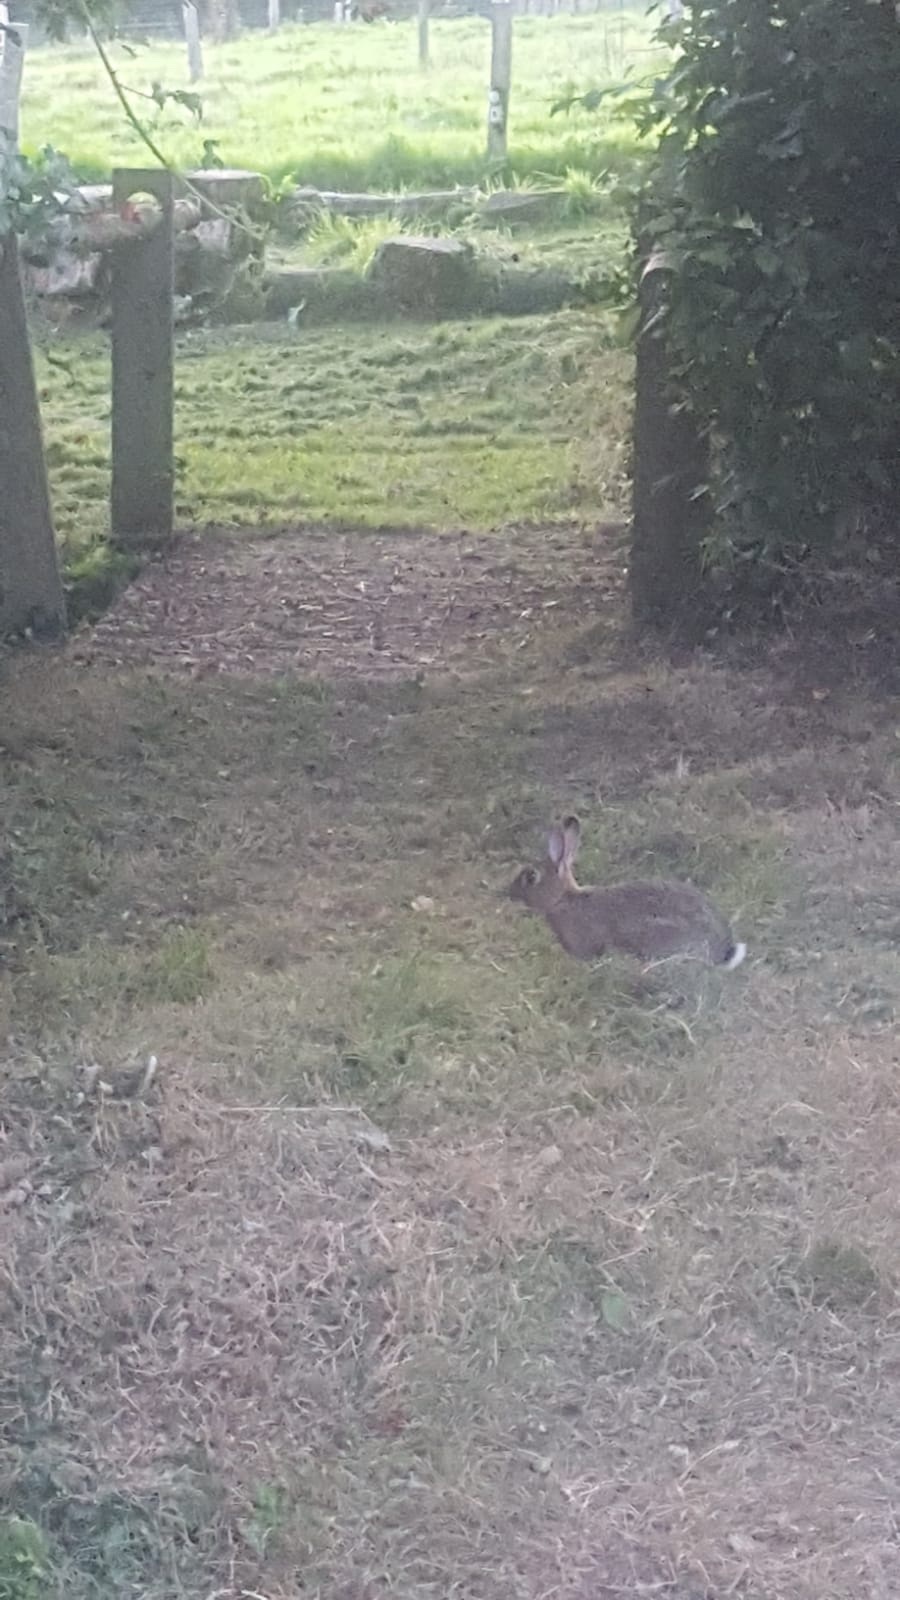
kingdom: Animalia
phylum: Chordata
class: Mammalia
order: Lagomorpha
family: Leporidae
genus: Oryctolagus
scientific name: Oryctolagus cuniculus
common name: European rabbit
